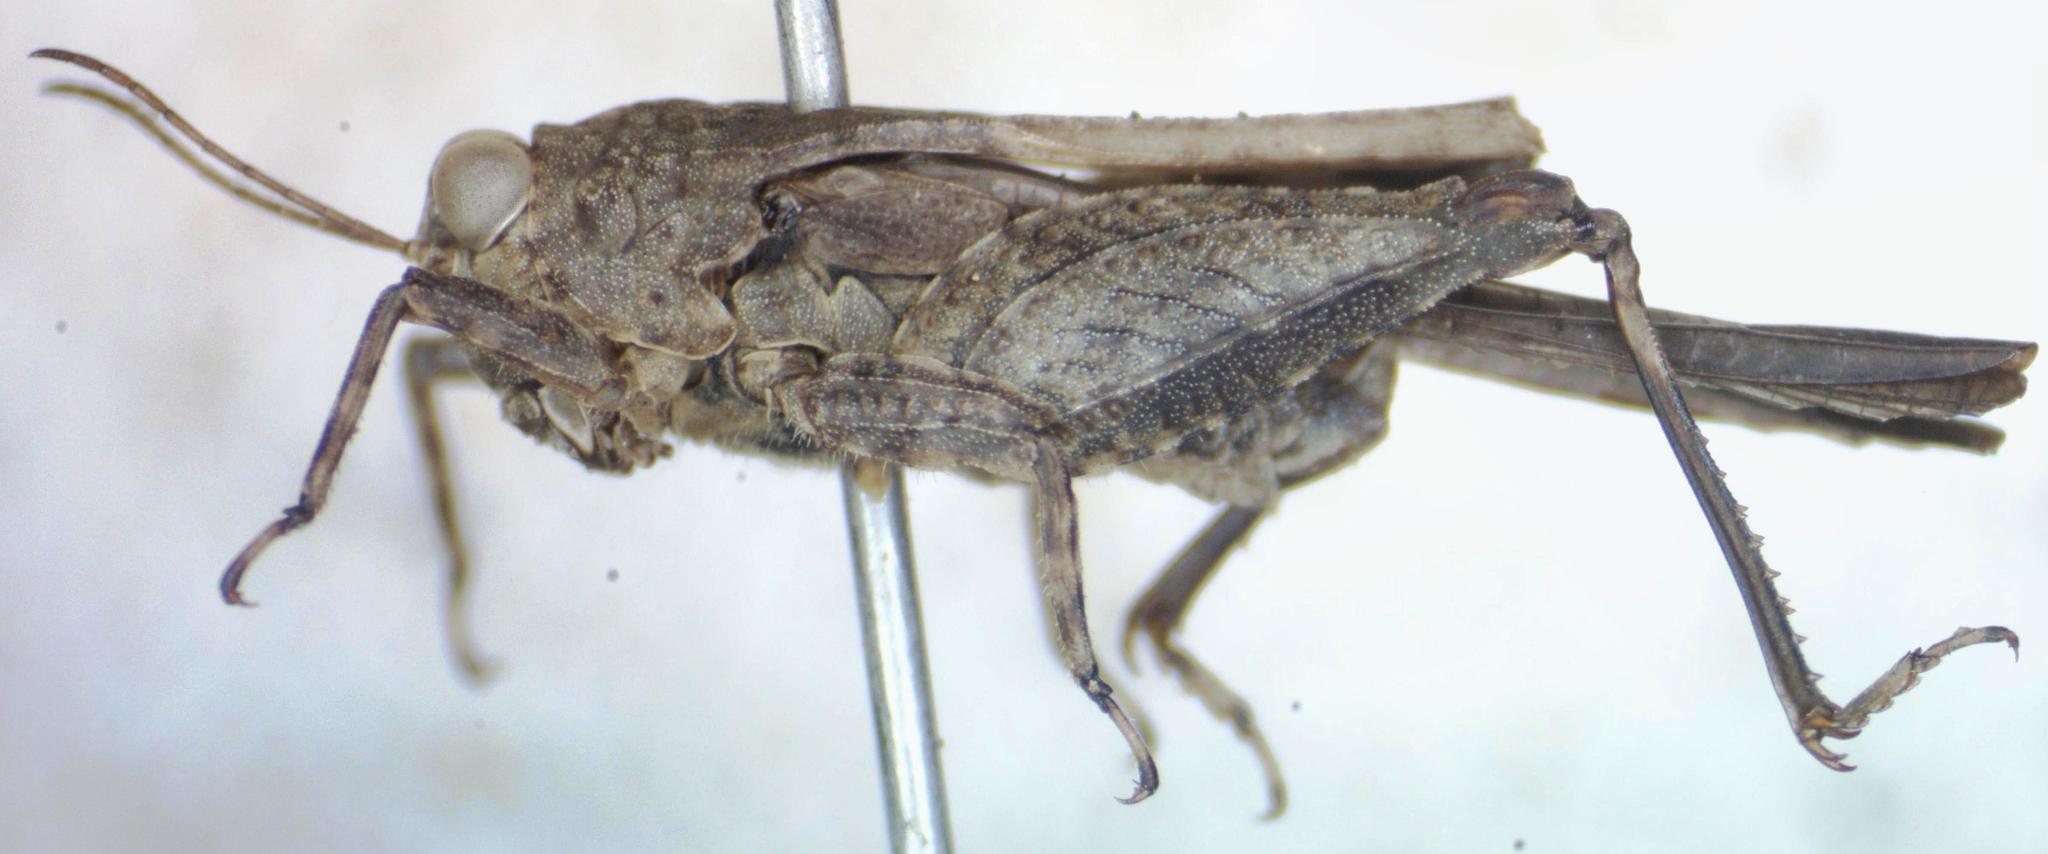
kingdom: Animalia
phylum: Arthropoda
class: Insecta
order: Orthoptera
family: Tetrigidae
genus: Paratettix
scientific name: Paratettix mexicanus
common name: Mexican pygmy grasshopper
